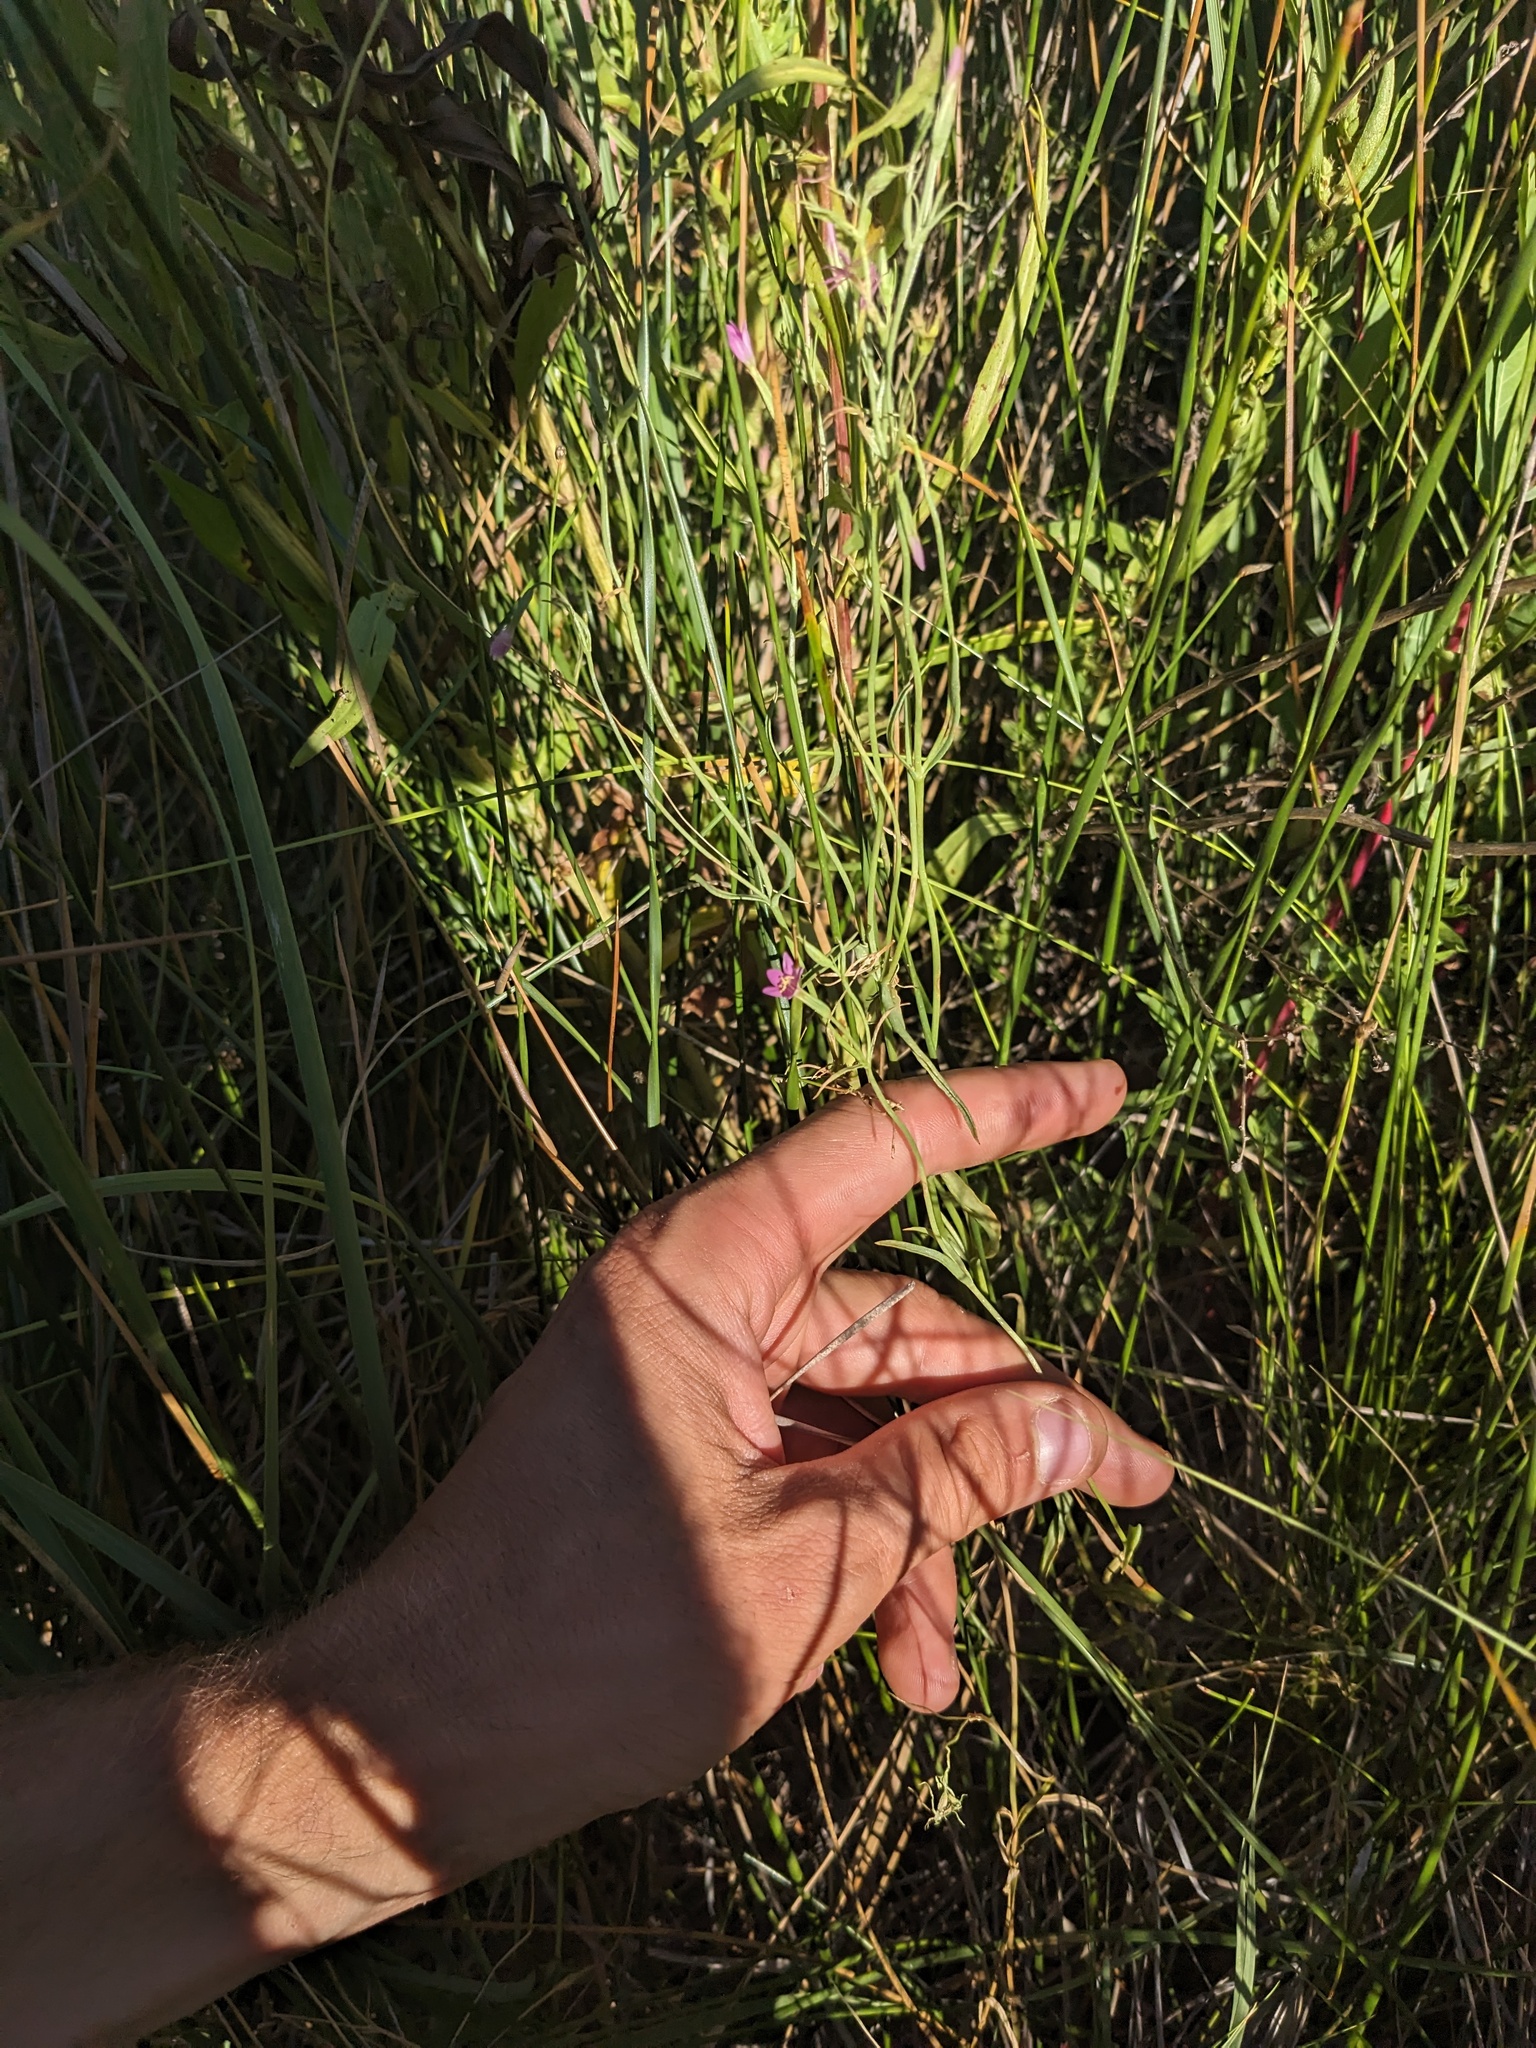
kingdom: Plantae
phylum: Tracheophyta
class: Magnoliopsida
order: Gentianales
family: Gentianaceae
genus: Zeltnera
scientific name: Zeltnera exaltata
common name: Great basin centaury
